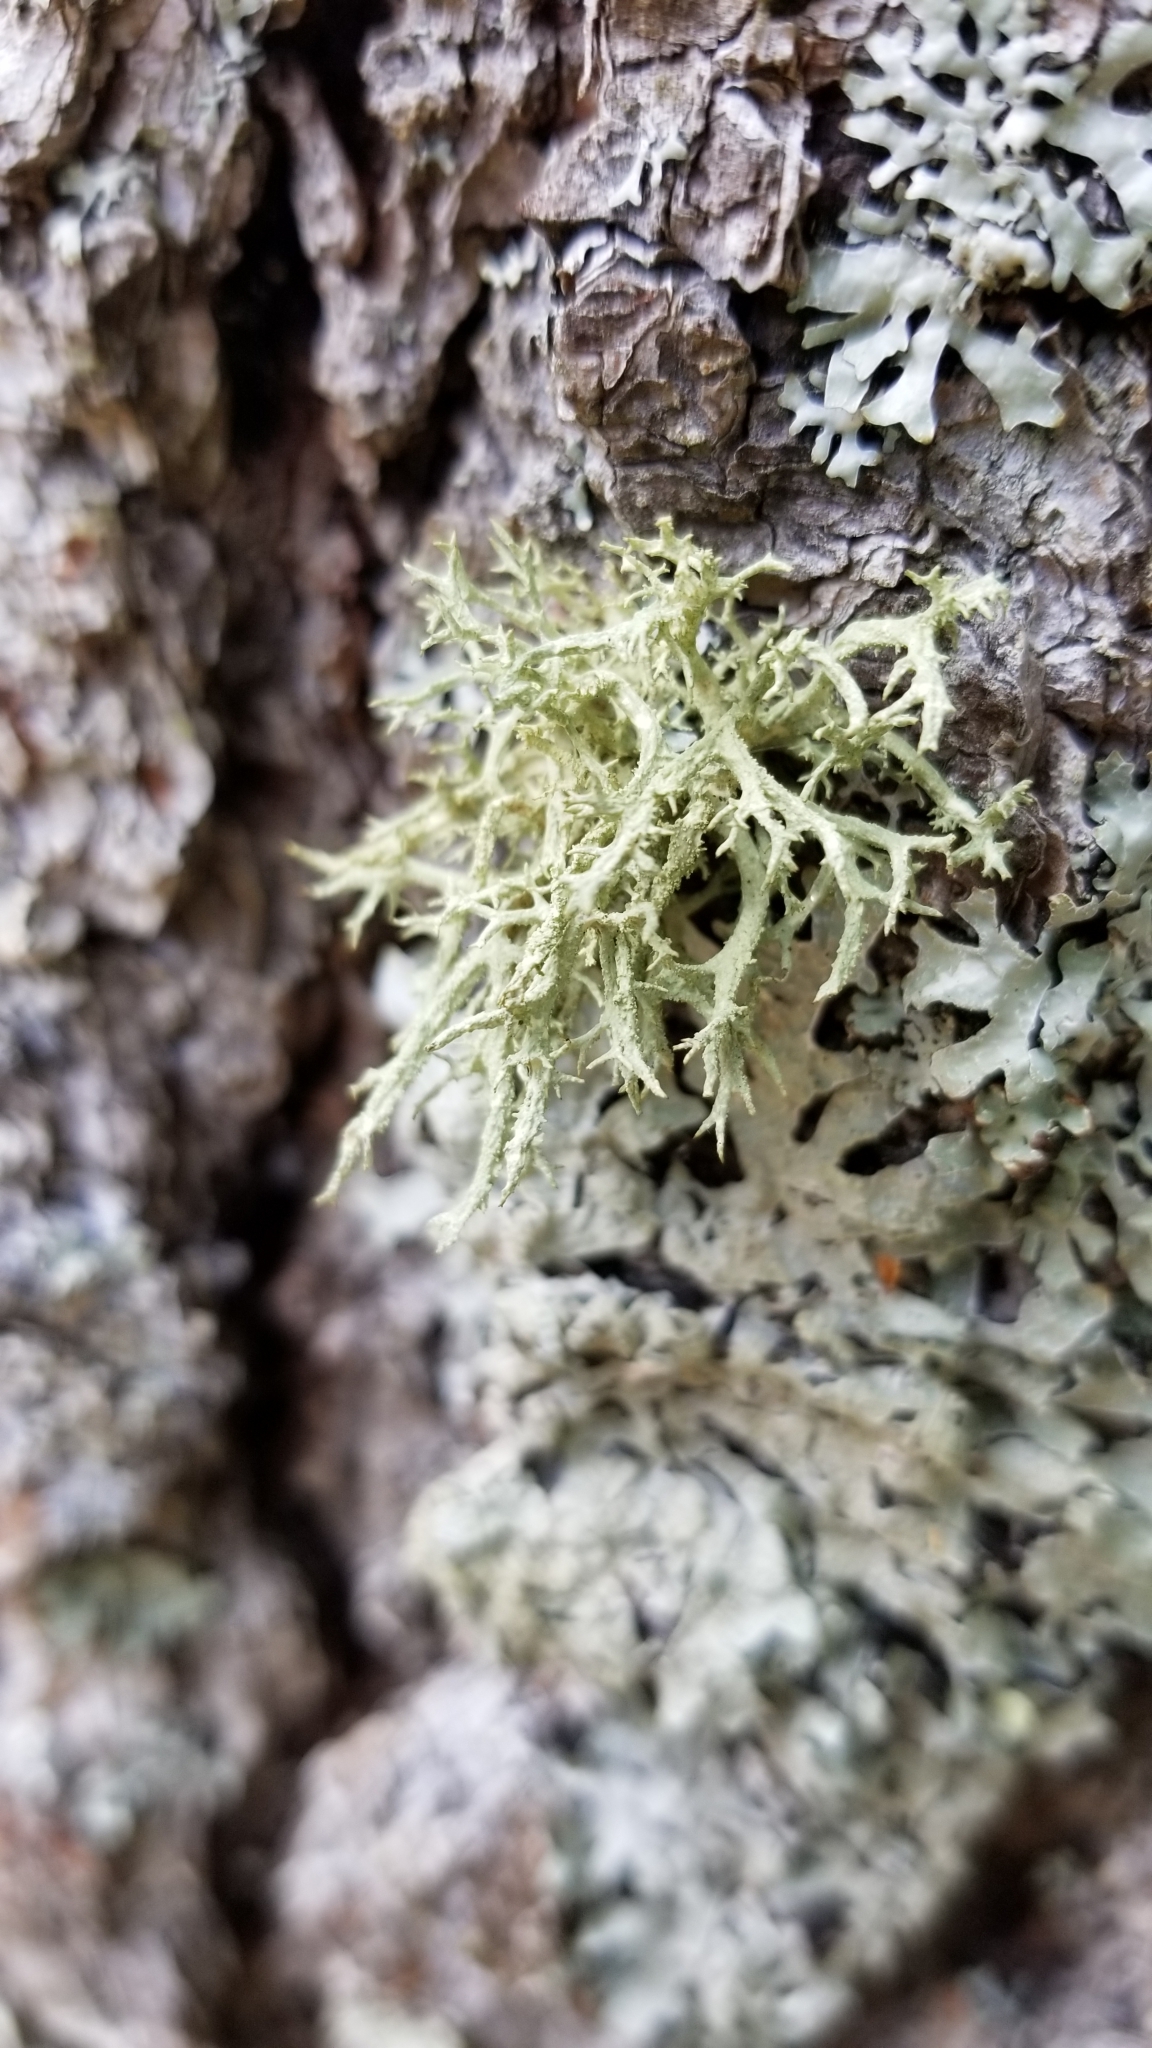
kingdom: Fungi
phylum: Ascomycota
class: Lecanoromycetes
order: Lecanorales
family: Parmeliaceae
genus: Evernia
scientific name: Evernia mesomorpha
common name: Boreal oak moss lichen
